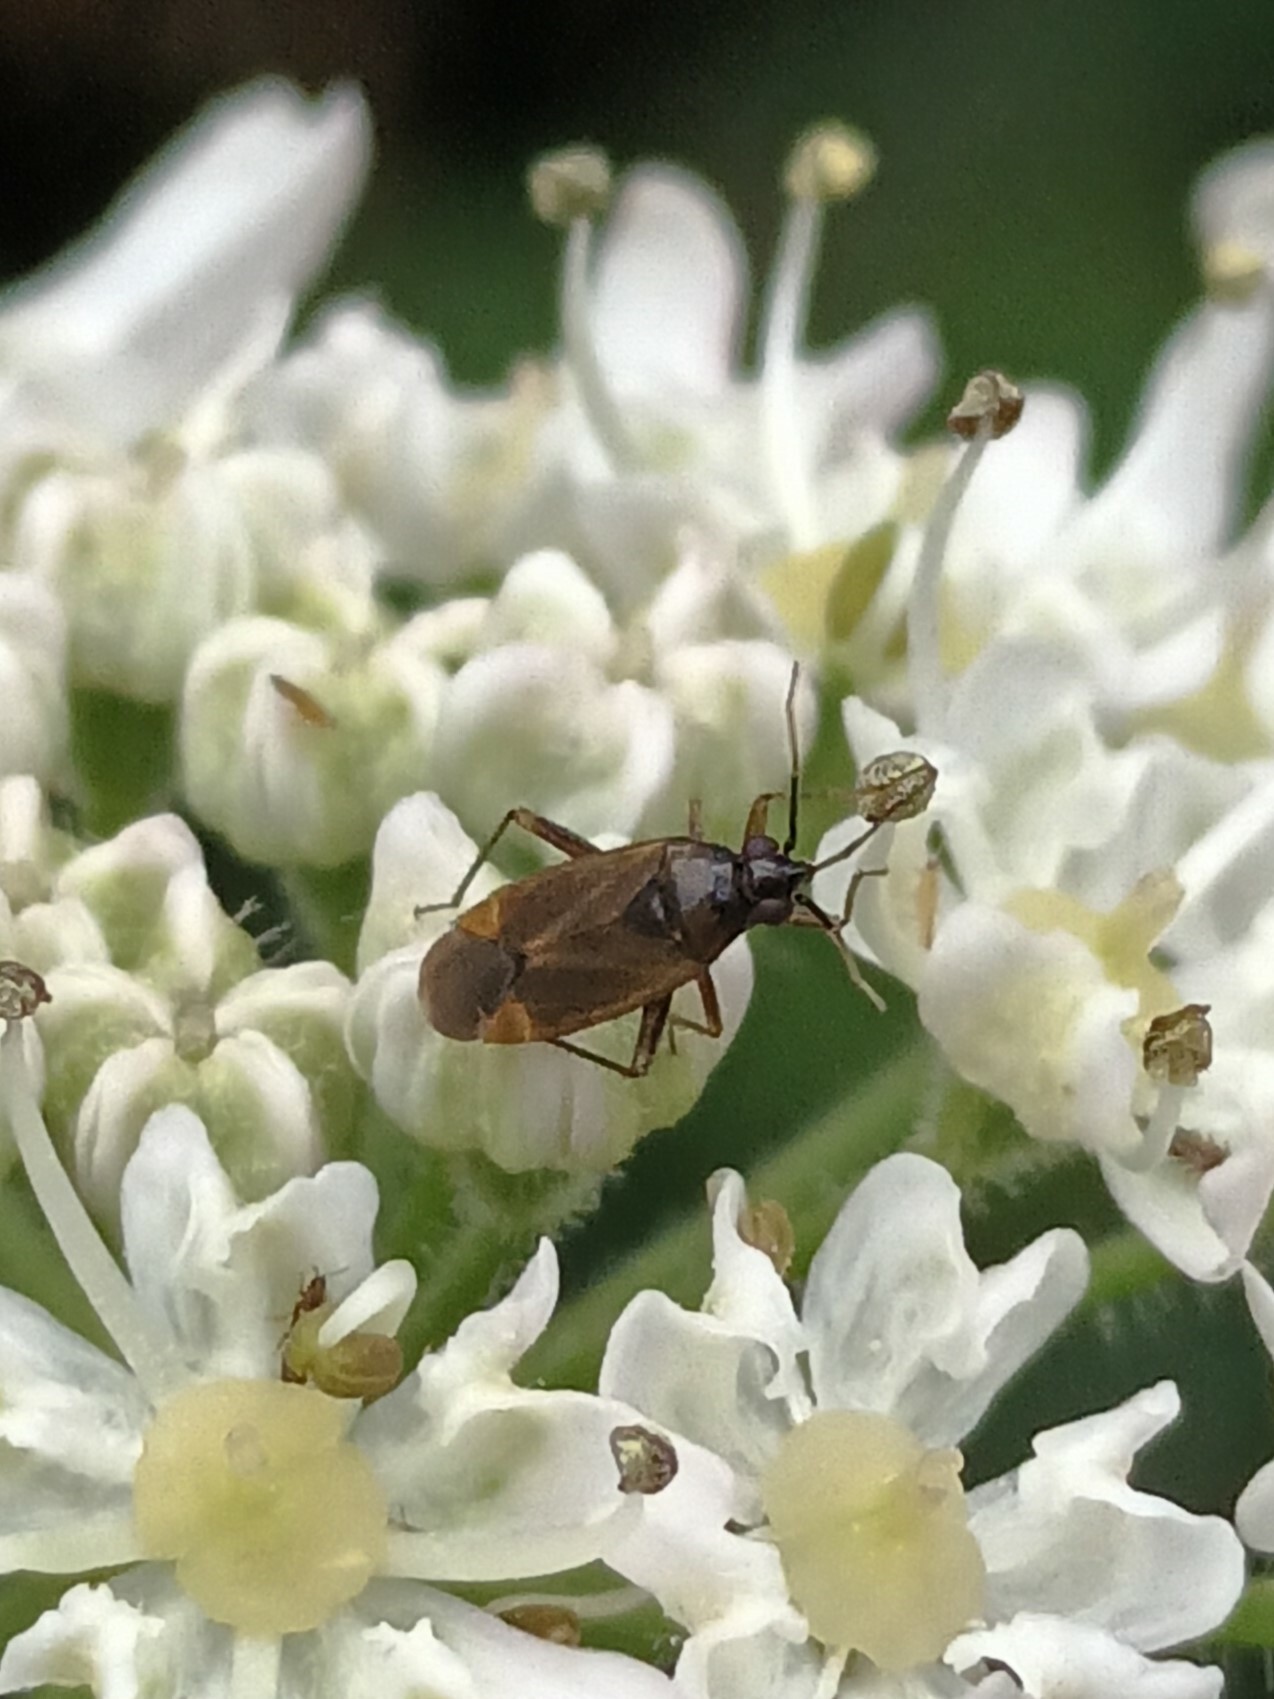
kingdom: Animalia
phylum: Arthropoda
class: Insecta
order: Hemiptera
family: Miridae
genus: Plagiognathus
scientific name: Plagiognathus arbustorum
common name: Plant bug
